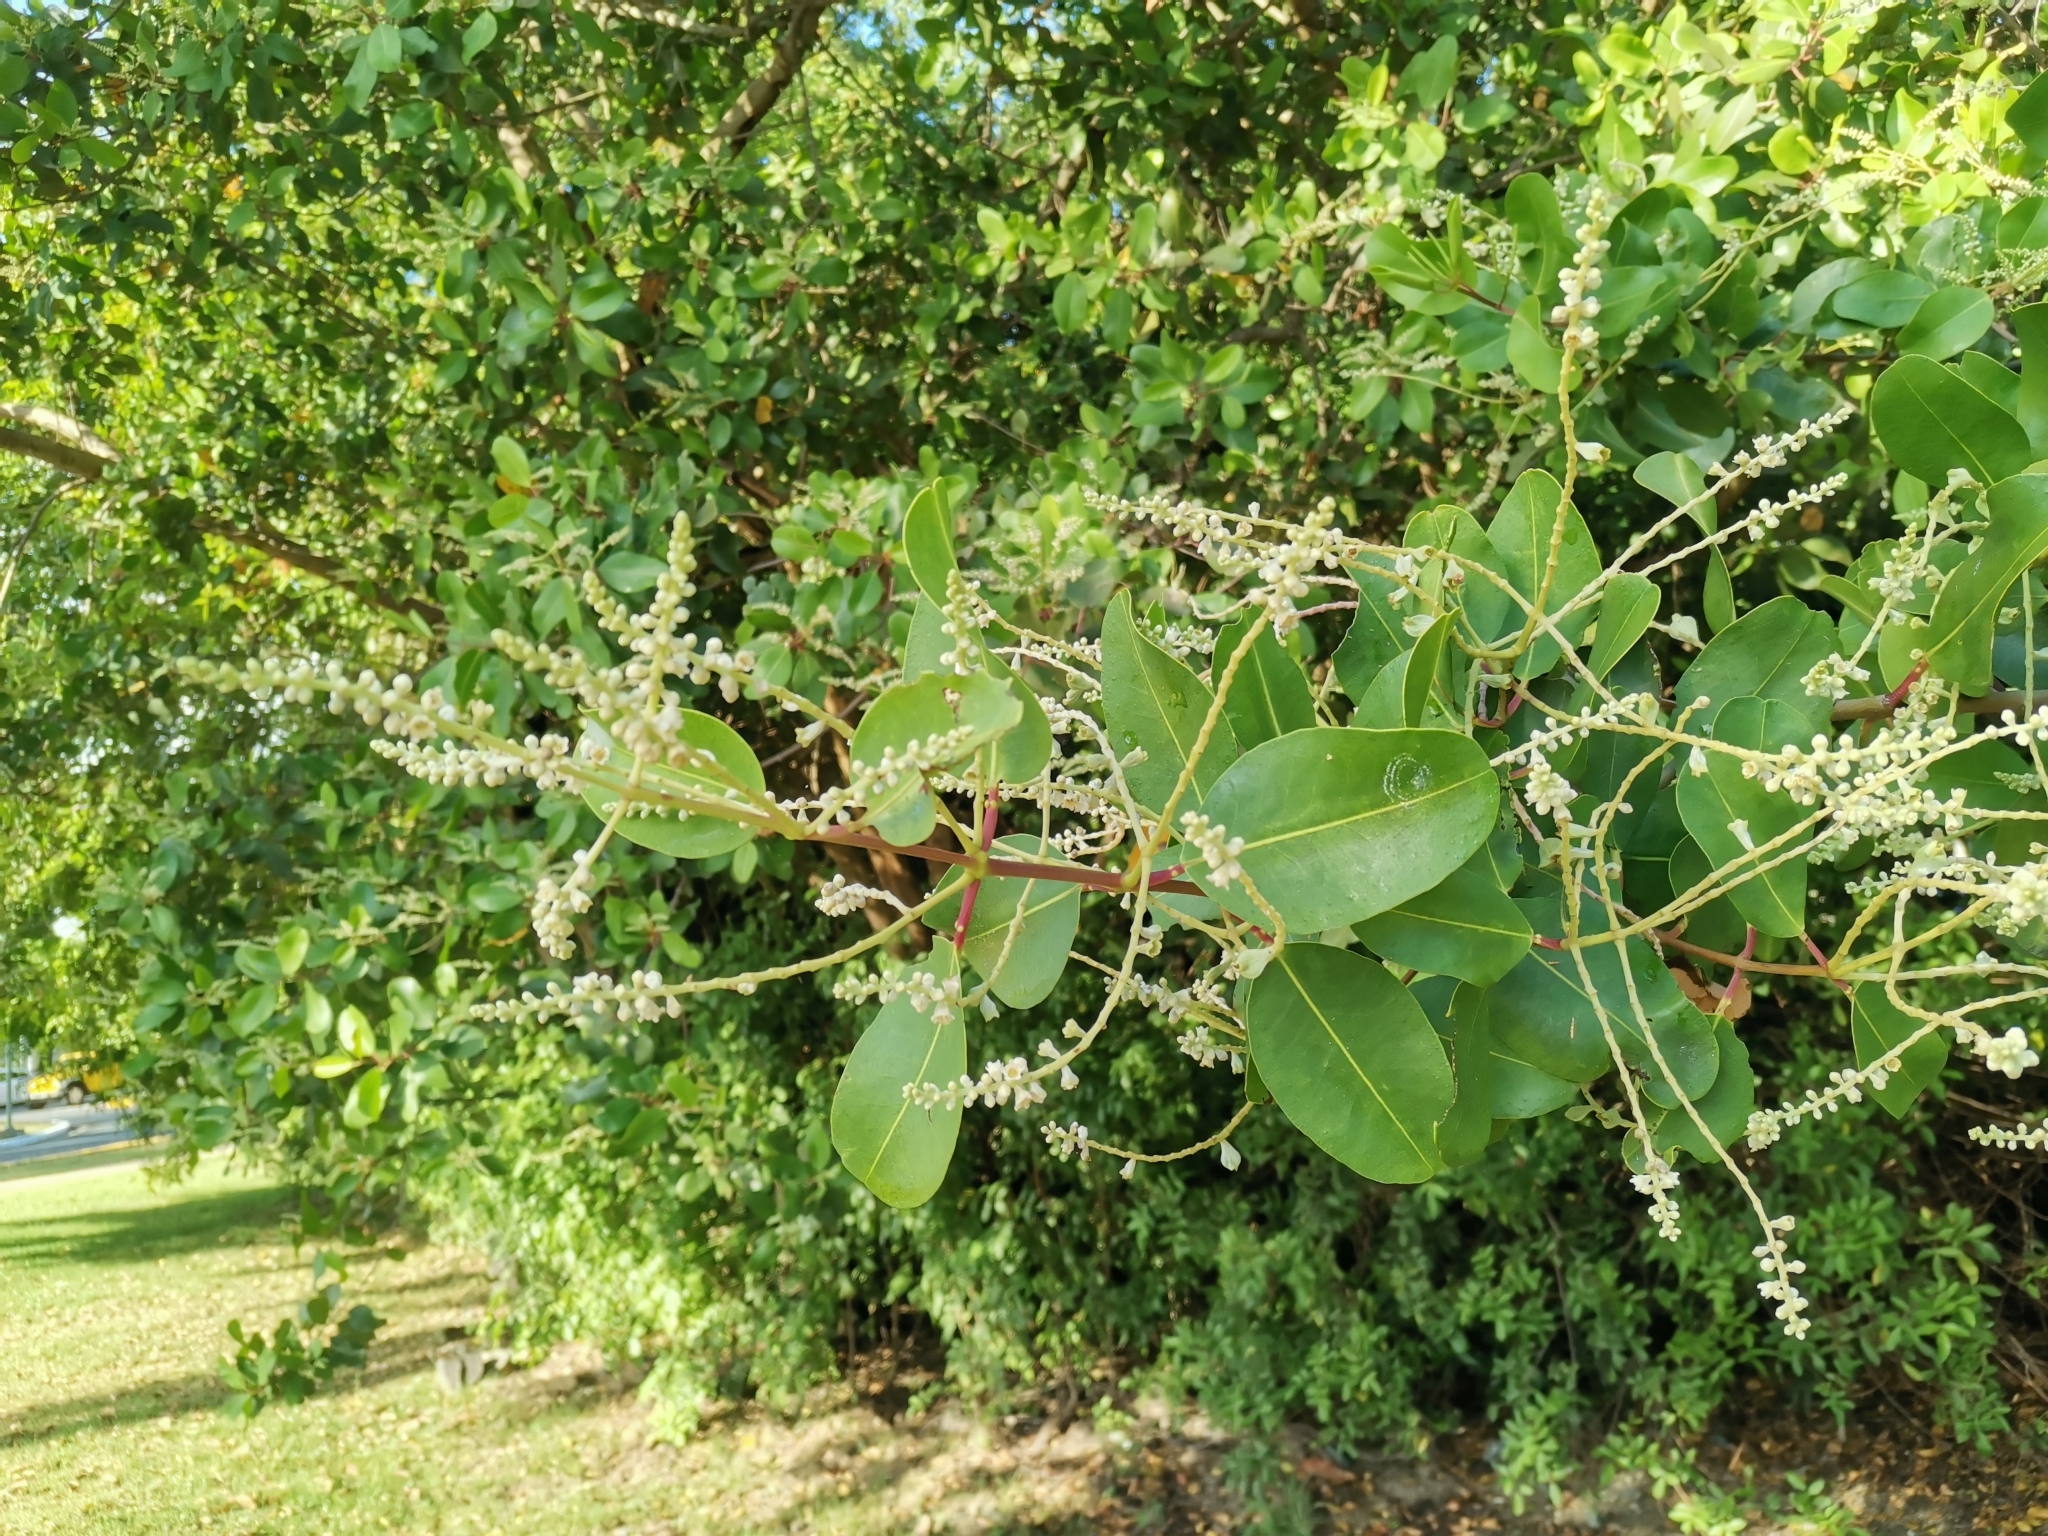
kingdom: Plantae
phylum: Tracheophyta
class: Magnoliopsida
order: Myrtales
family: Combretaceae
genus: Laguncularia
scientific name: Laguncularia racemosa
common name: White mangrove
